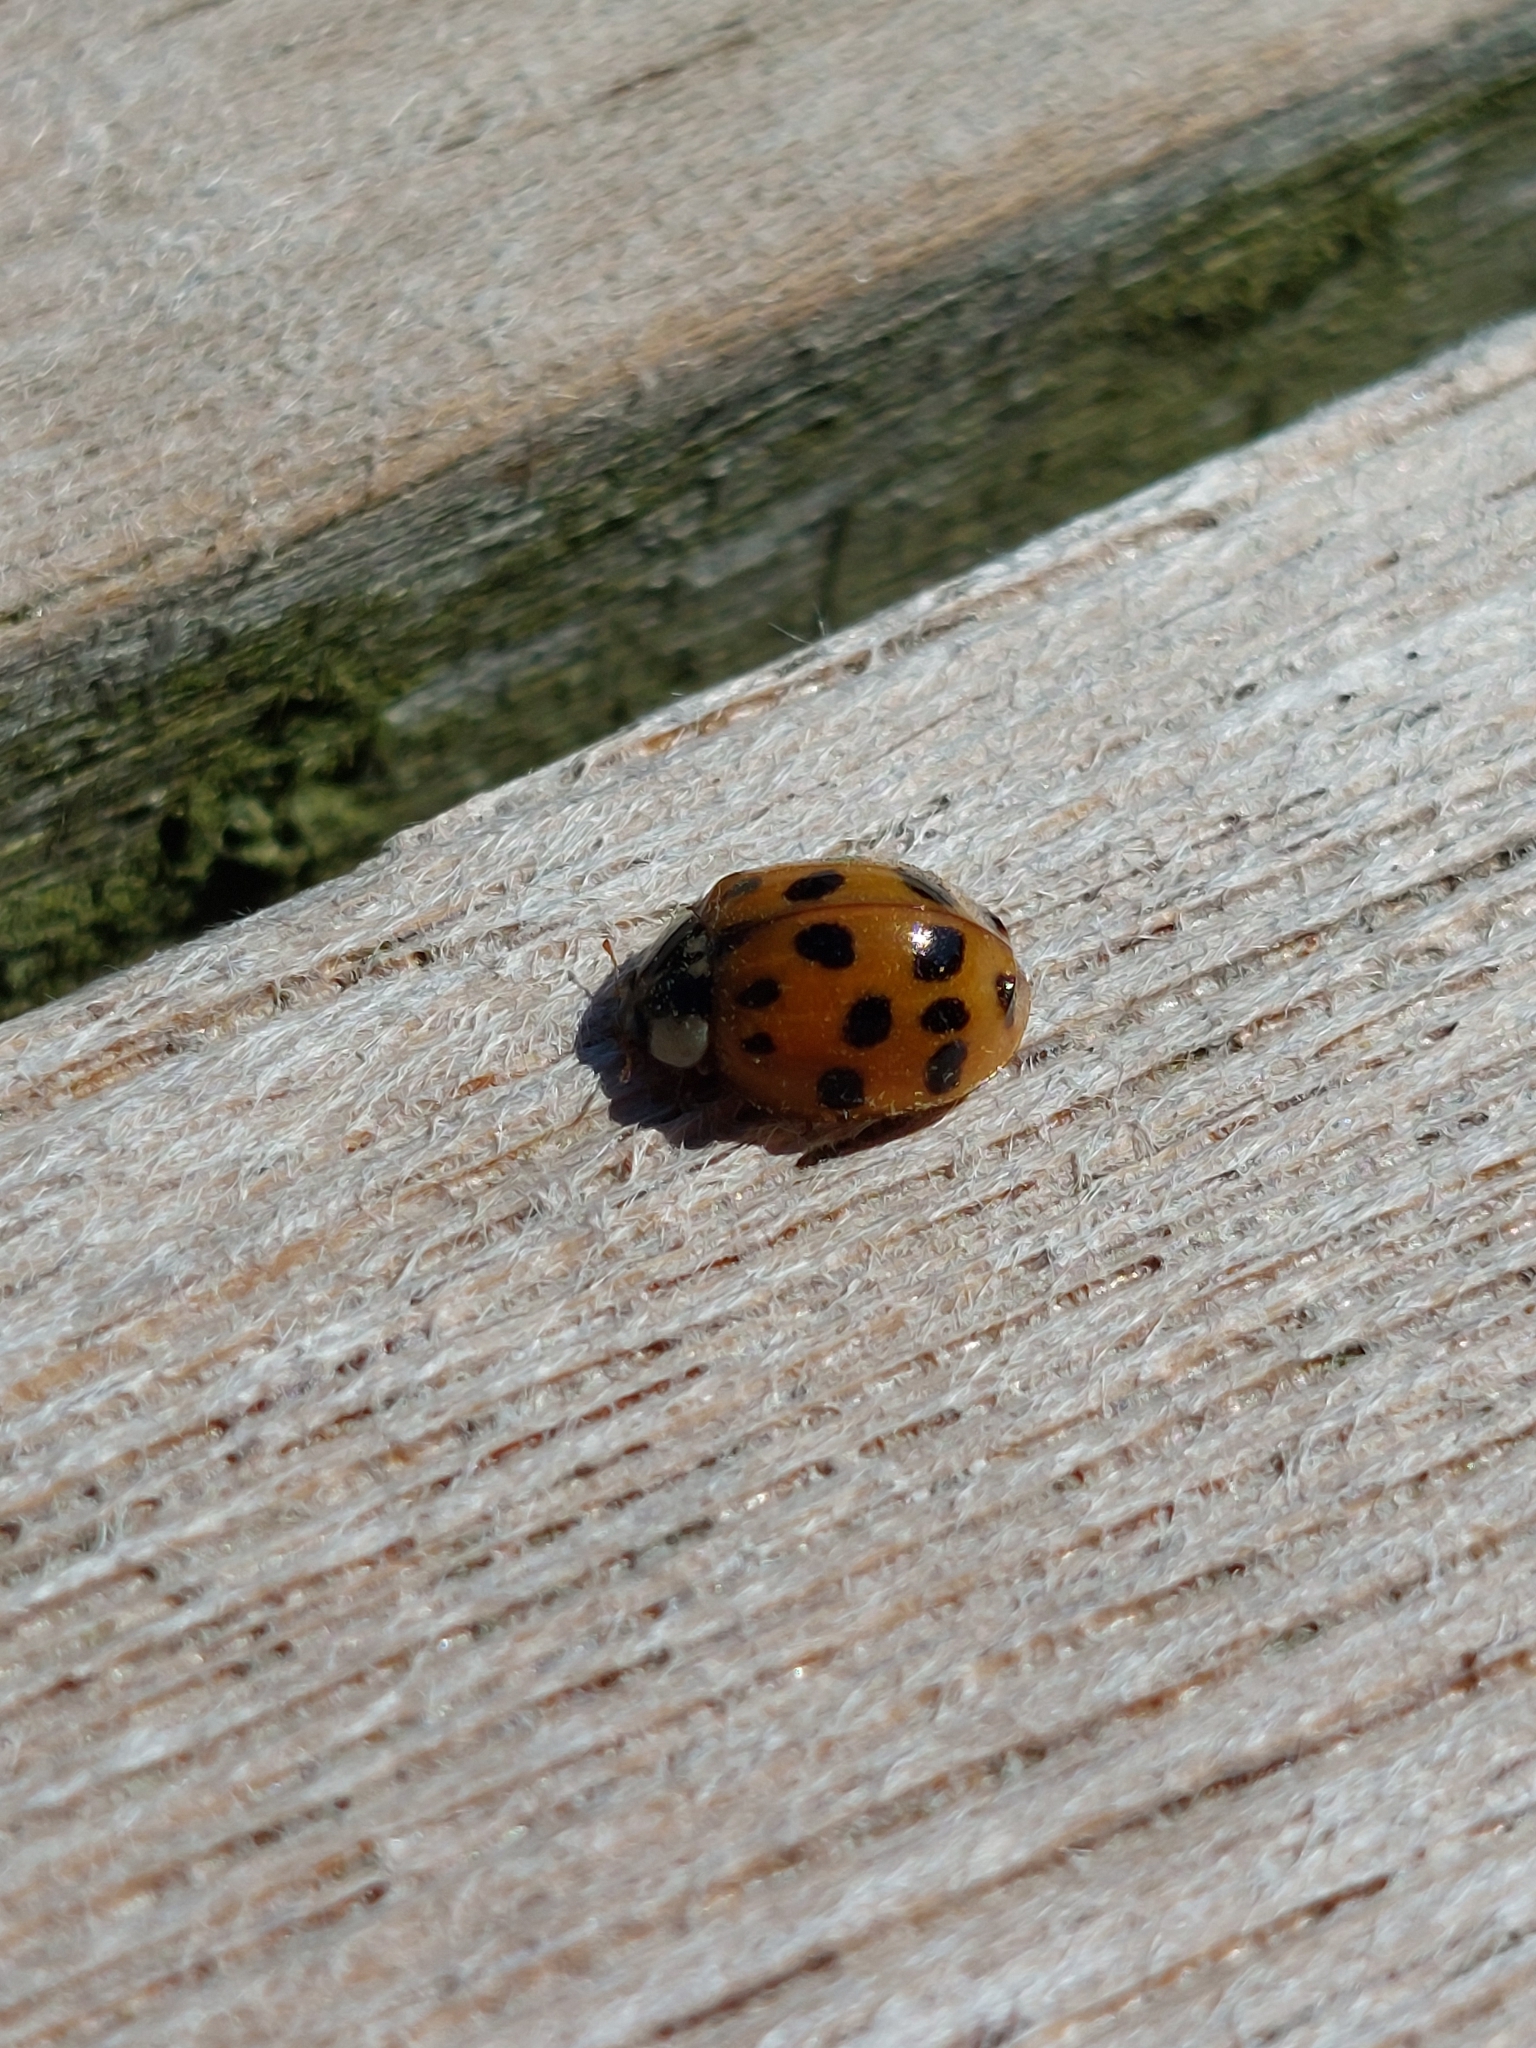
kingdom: Animalia
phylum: Arthropoda
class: Insecta
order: Coleoptera
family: Coccinellidae
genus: Harmonia
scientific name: Harmonia axyridis
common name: Harlequin ladybird
